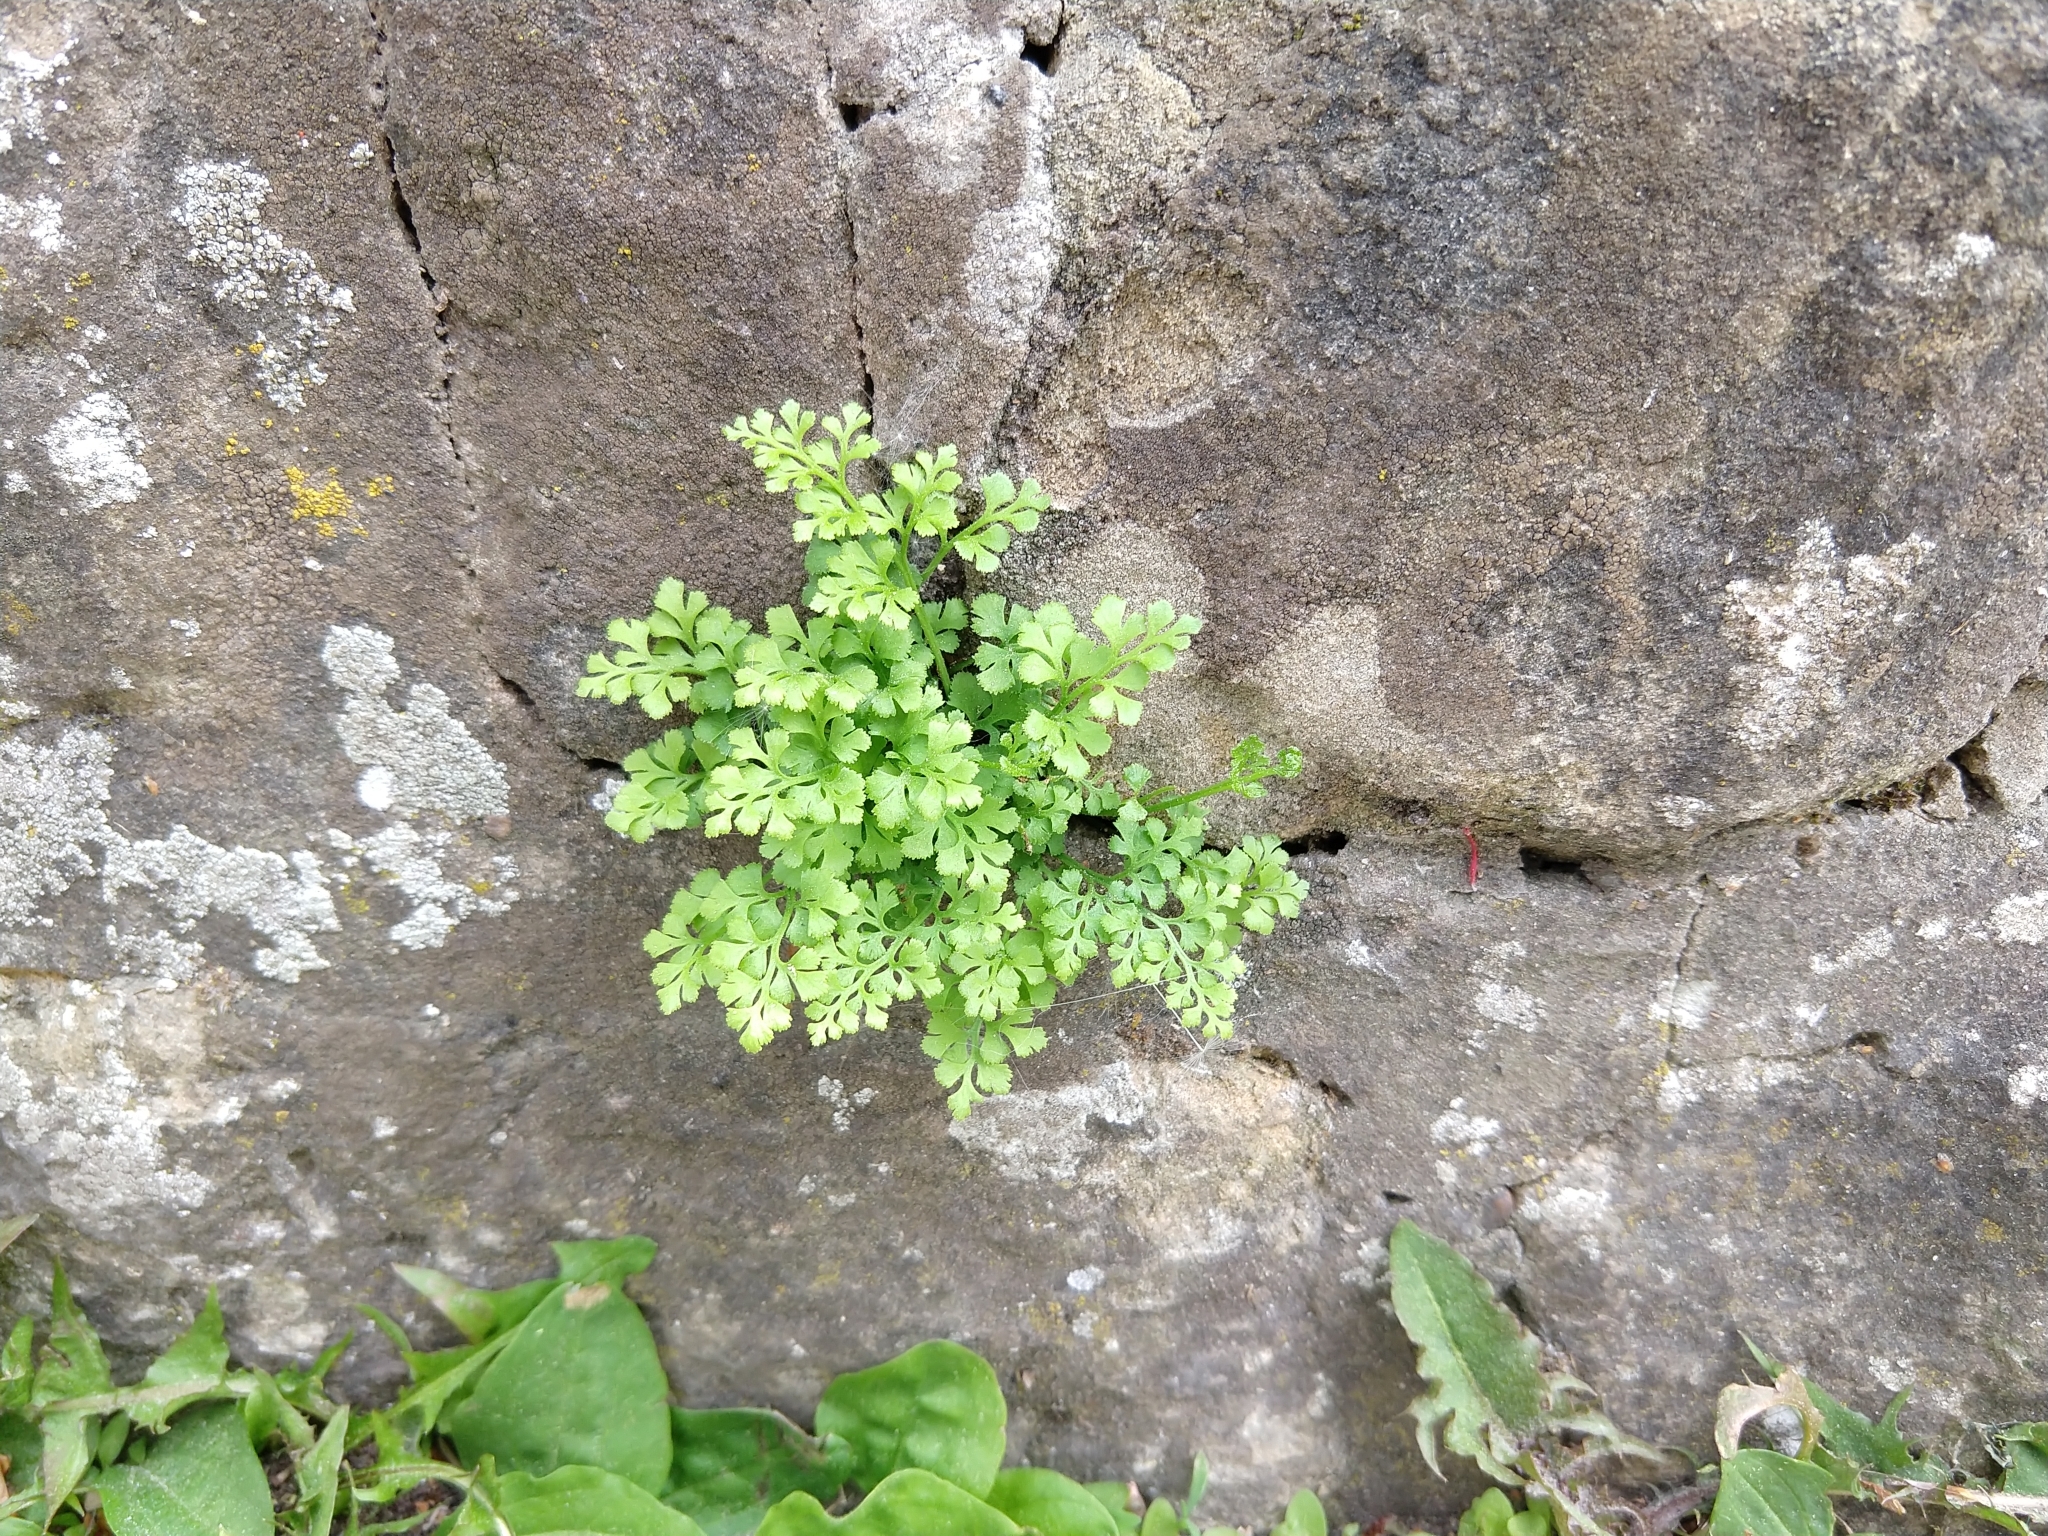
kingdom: Plantae
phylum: Tracheophyta
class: Polypodiopsida
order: Polypodiales
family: Aspleniaceae
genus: Asplenium
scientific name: Asplenium ruta-muraria
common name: Wall-rue
